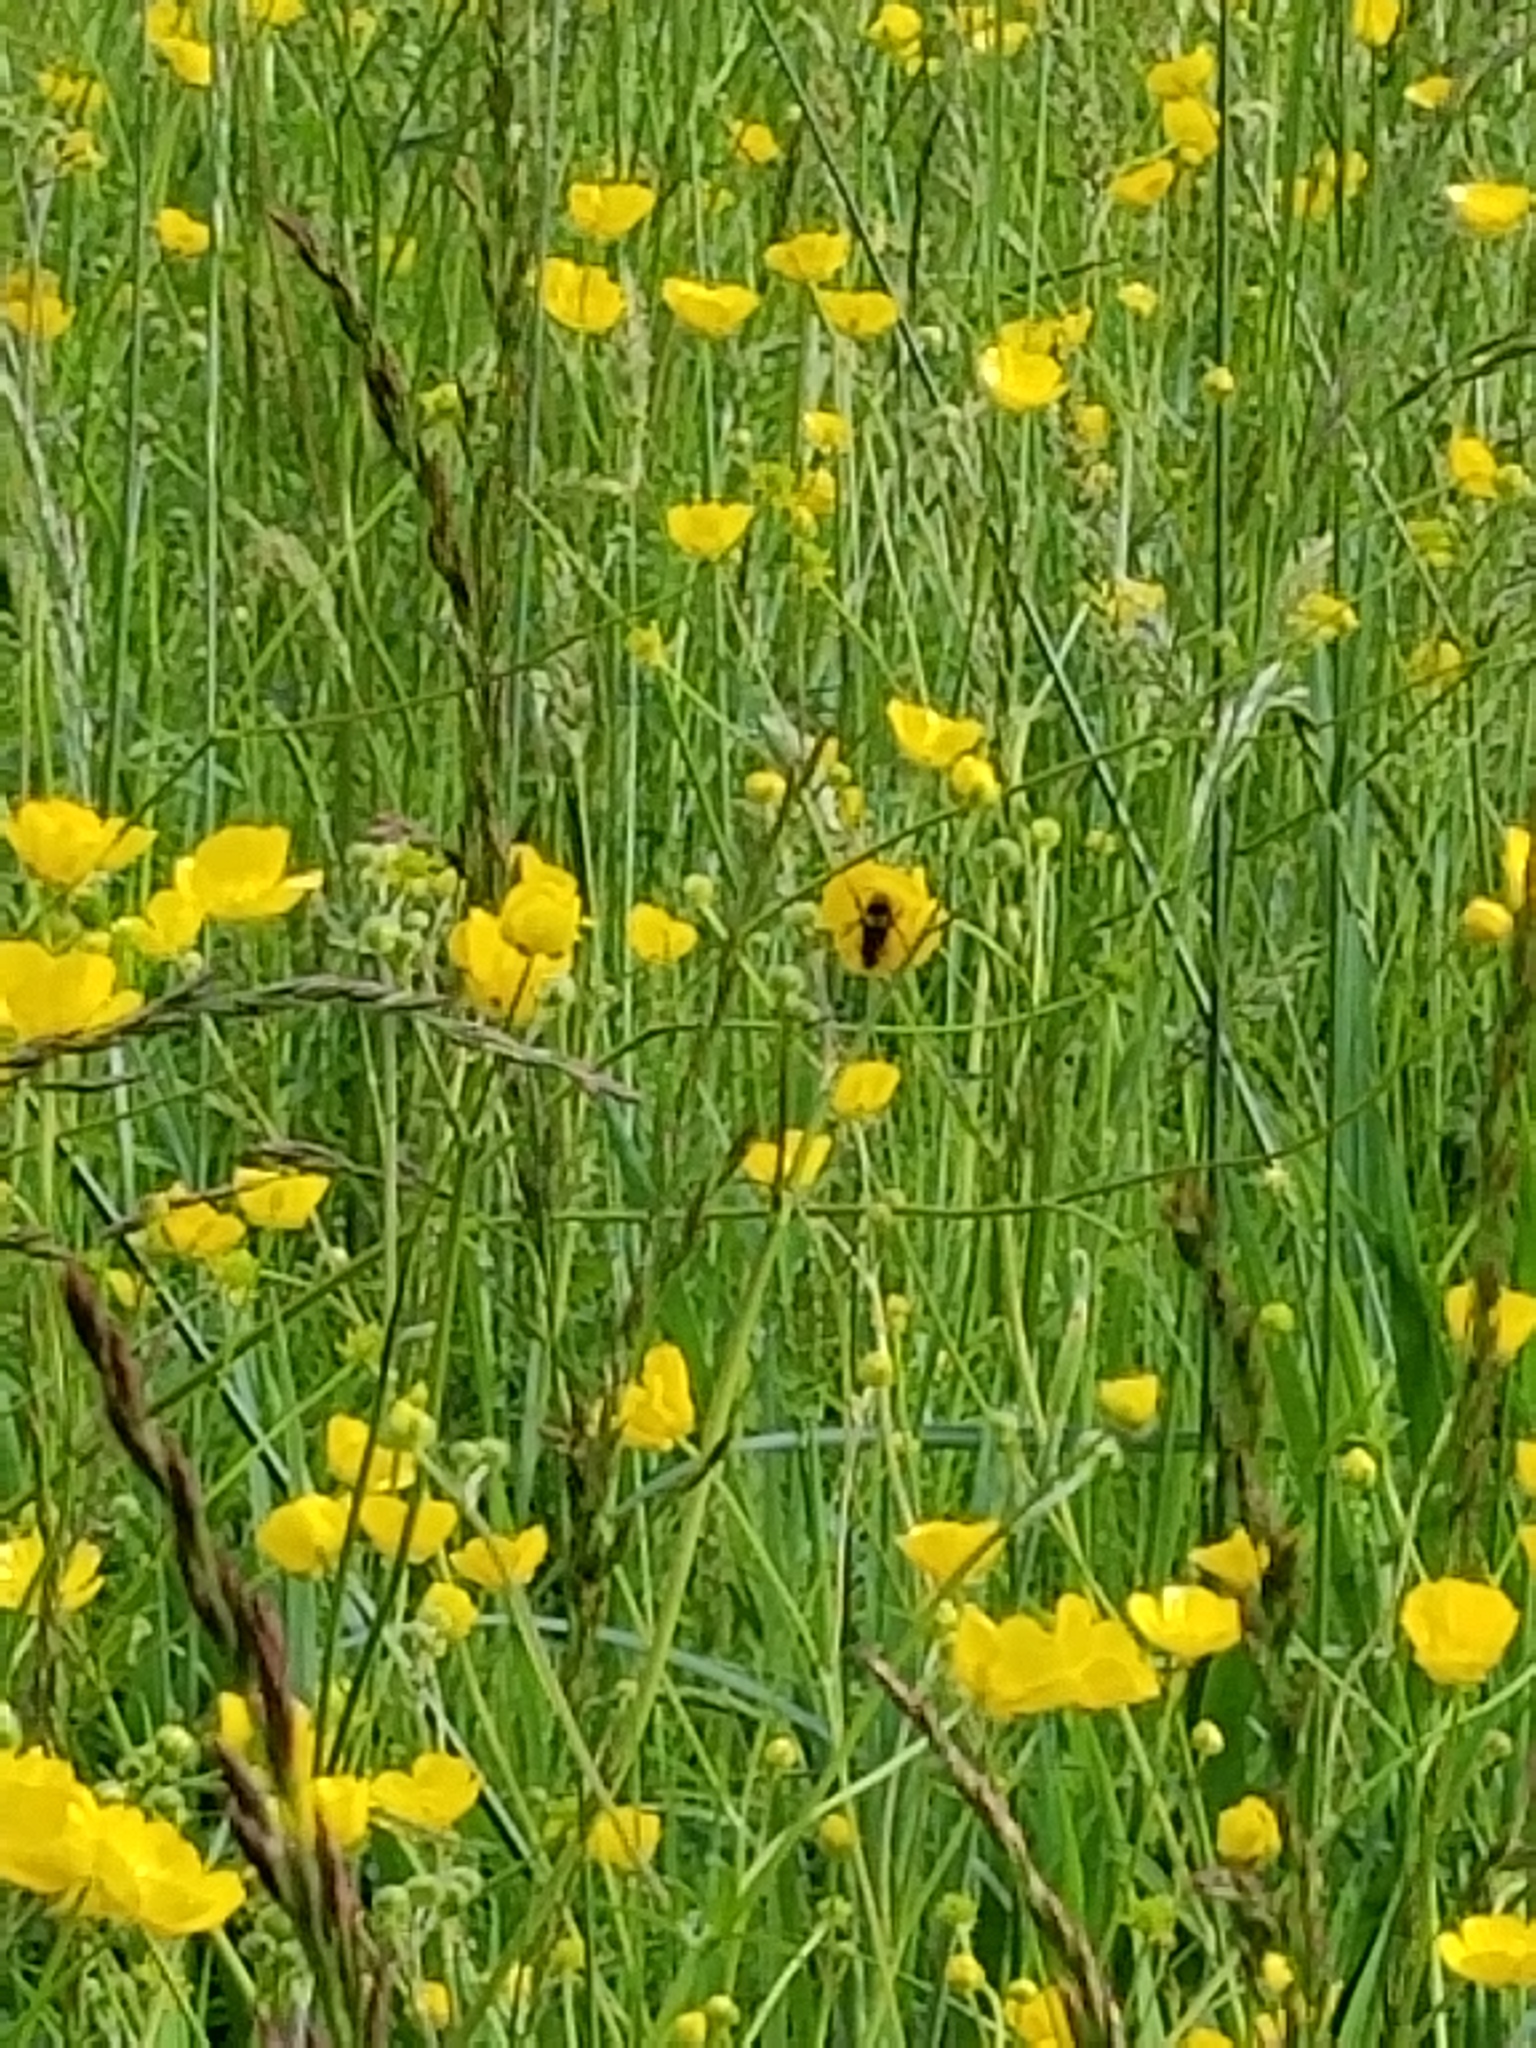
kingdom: Plantae
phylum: Tracheophyta
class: Magnoliopsida
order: Ranunculales
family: Ranunculaceae
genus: Ranunculus
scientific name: Ranunculus acris
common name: Meadow buttercup
